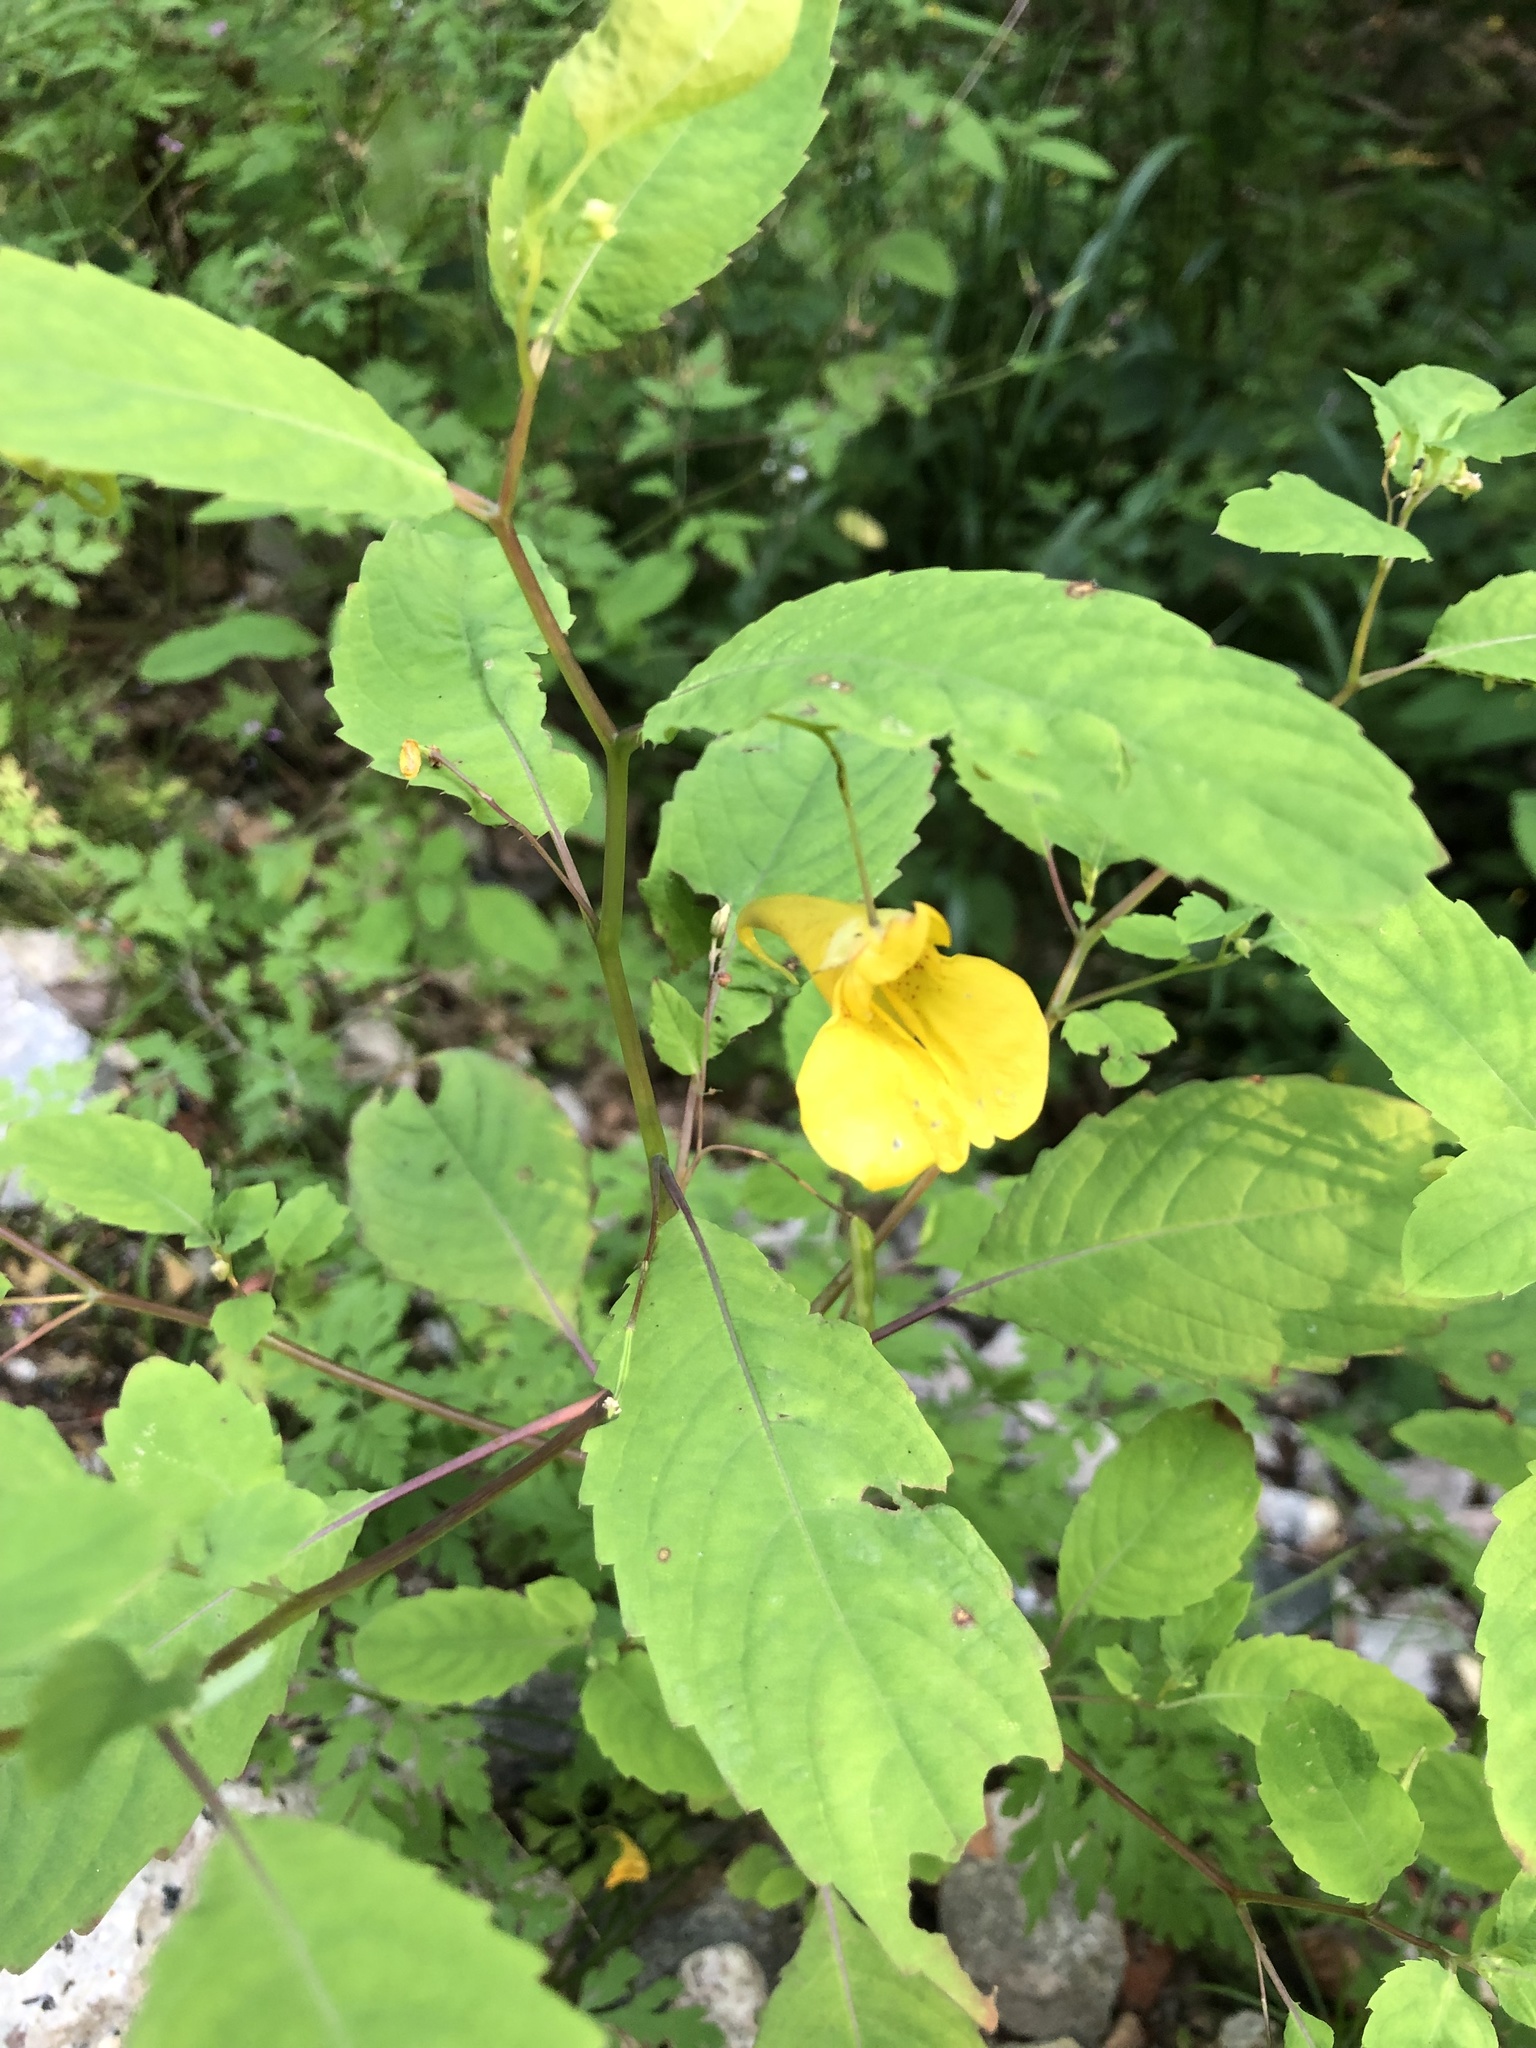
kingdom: Plantae
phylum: Tracheophyta
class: Magnoliopsida
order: Ericales
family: Balsaminaceae
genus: Impatiens
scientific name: Impatiens noli-tangere
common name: Touch-me-not balsam
